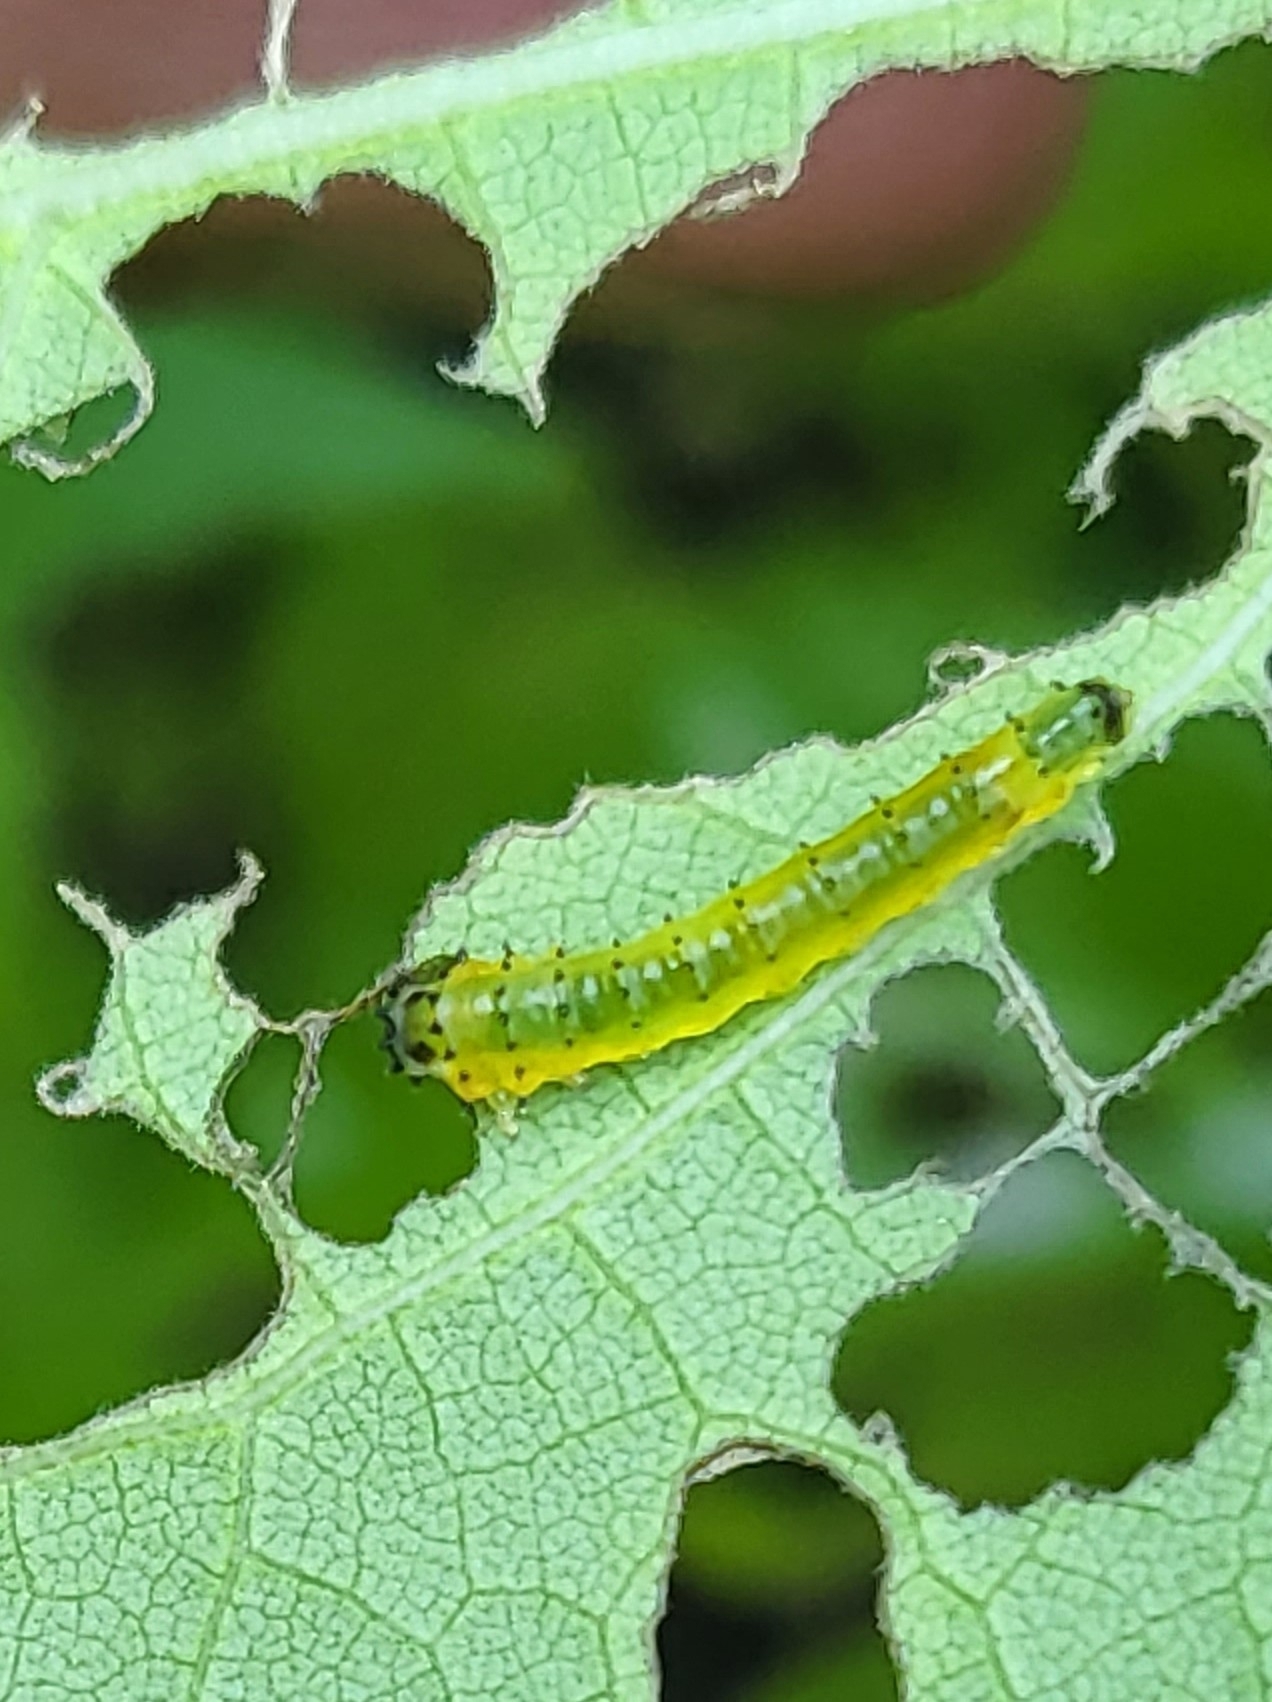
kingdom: Animalia
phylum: Arthropoda
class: Insecta
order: Hymenoptera
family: Argidae
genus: Atomacera
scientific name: Atomacera
